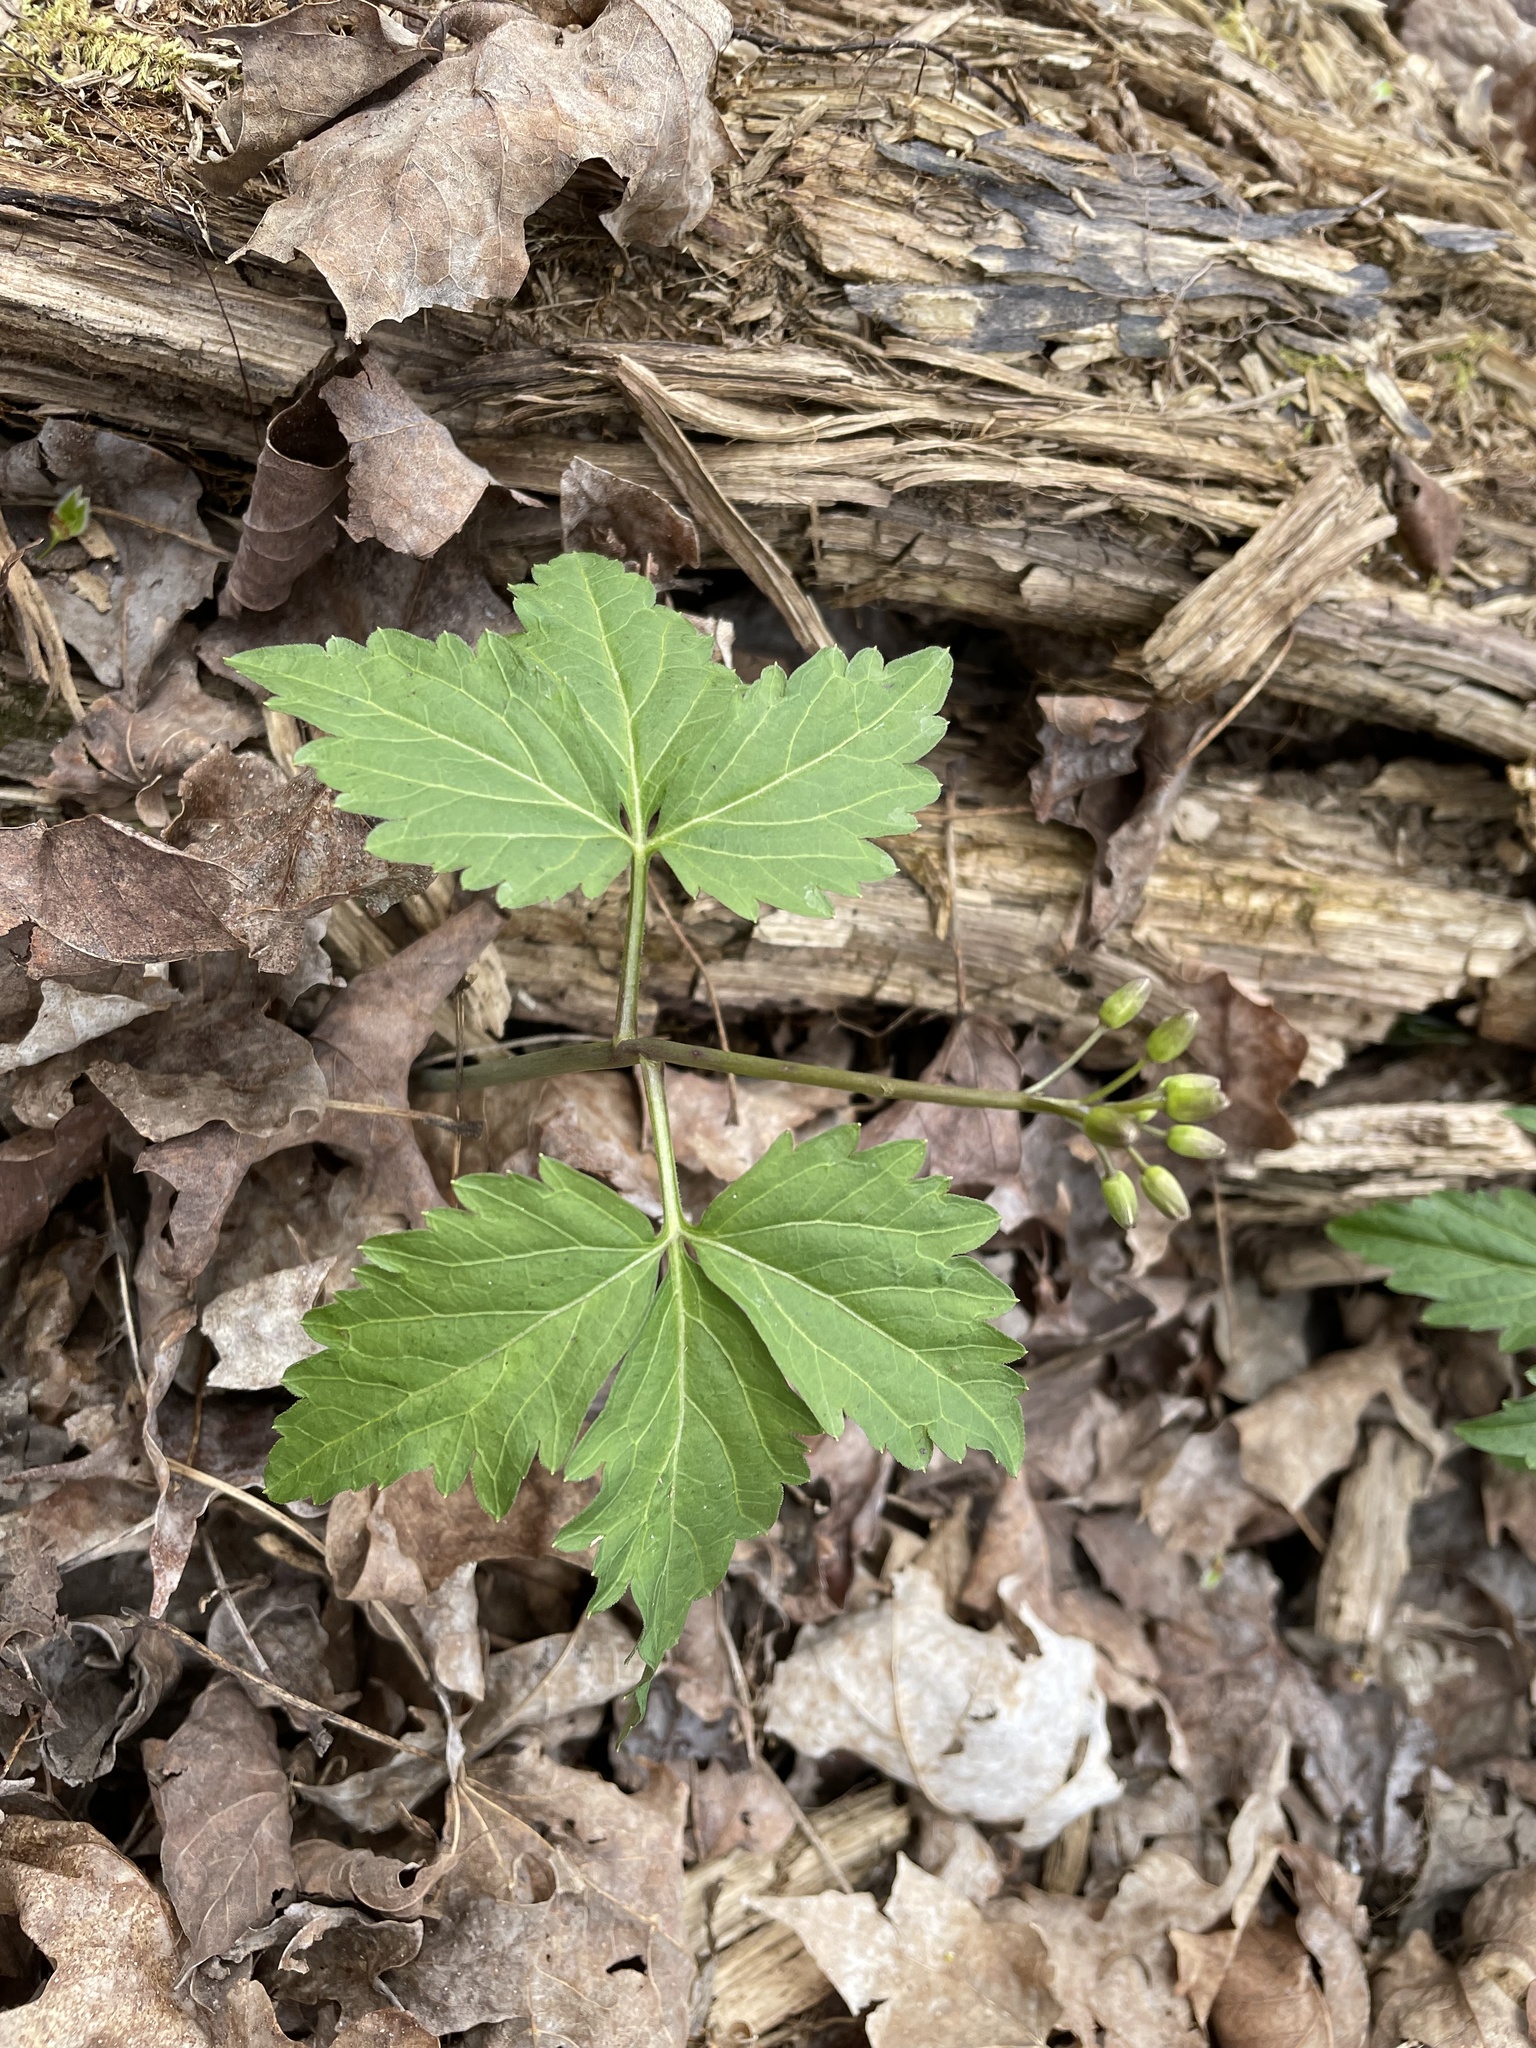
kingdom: Plantae
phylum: Tracheophyta
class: Magnoliopsida
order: Brassicales
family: Brassicaceae
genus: Cardamine
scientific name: Cardamine diphylla
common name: Broad-leaved toothwort
